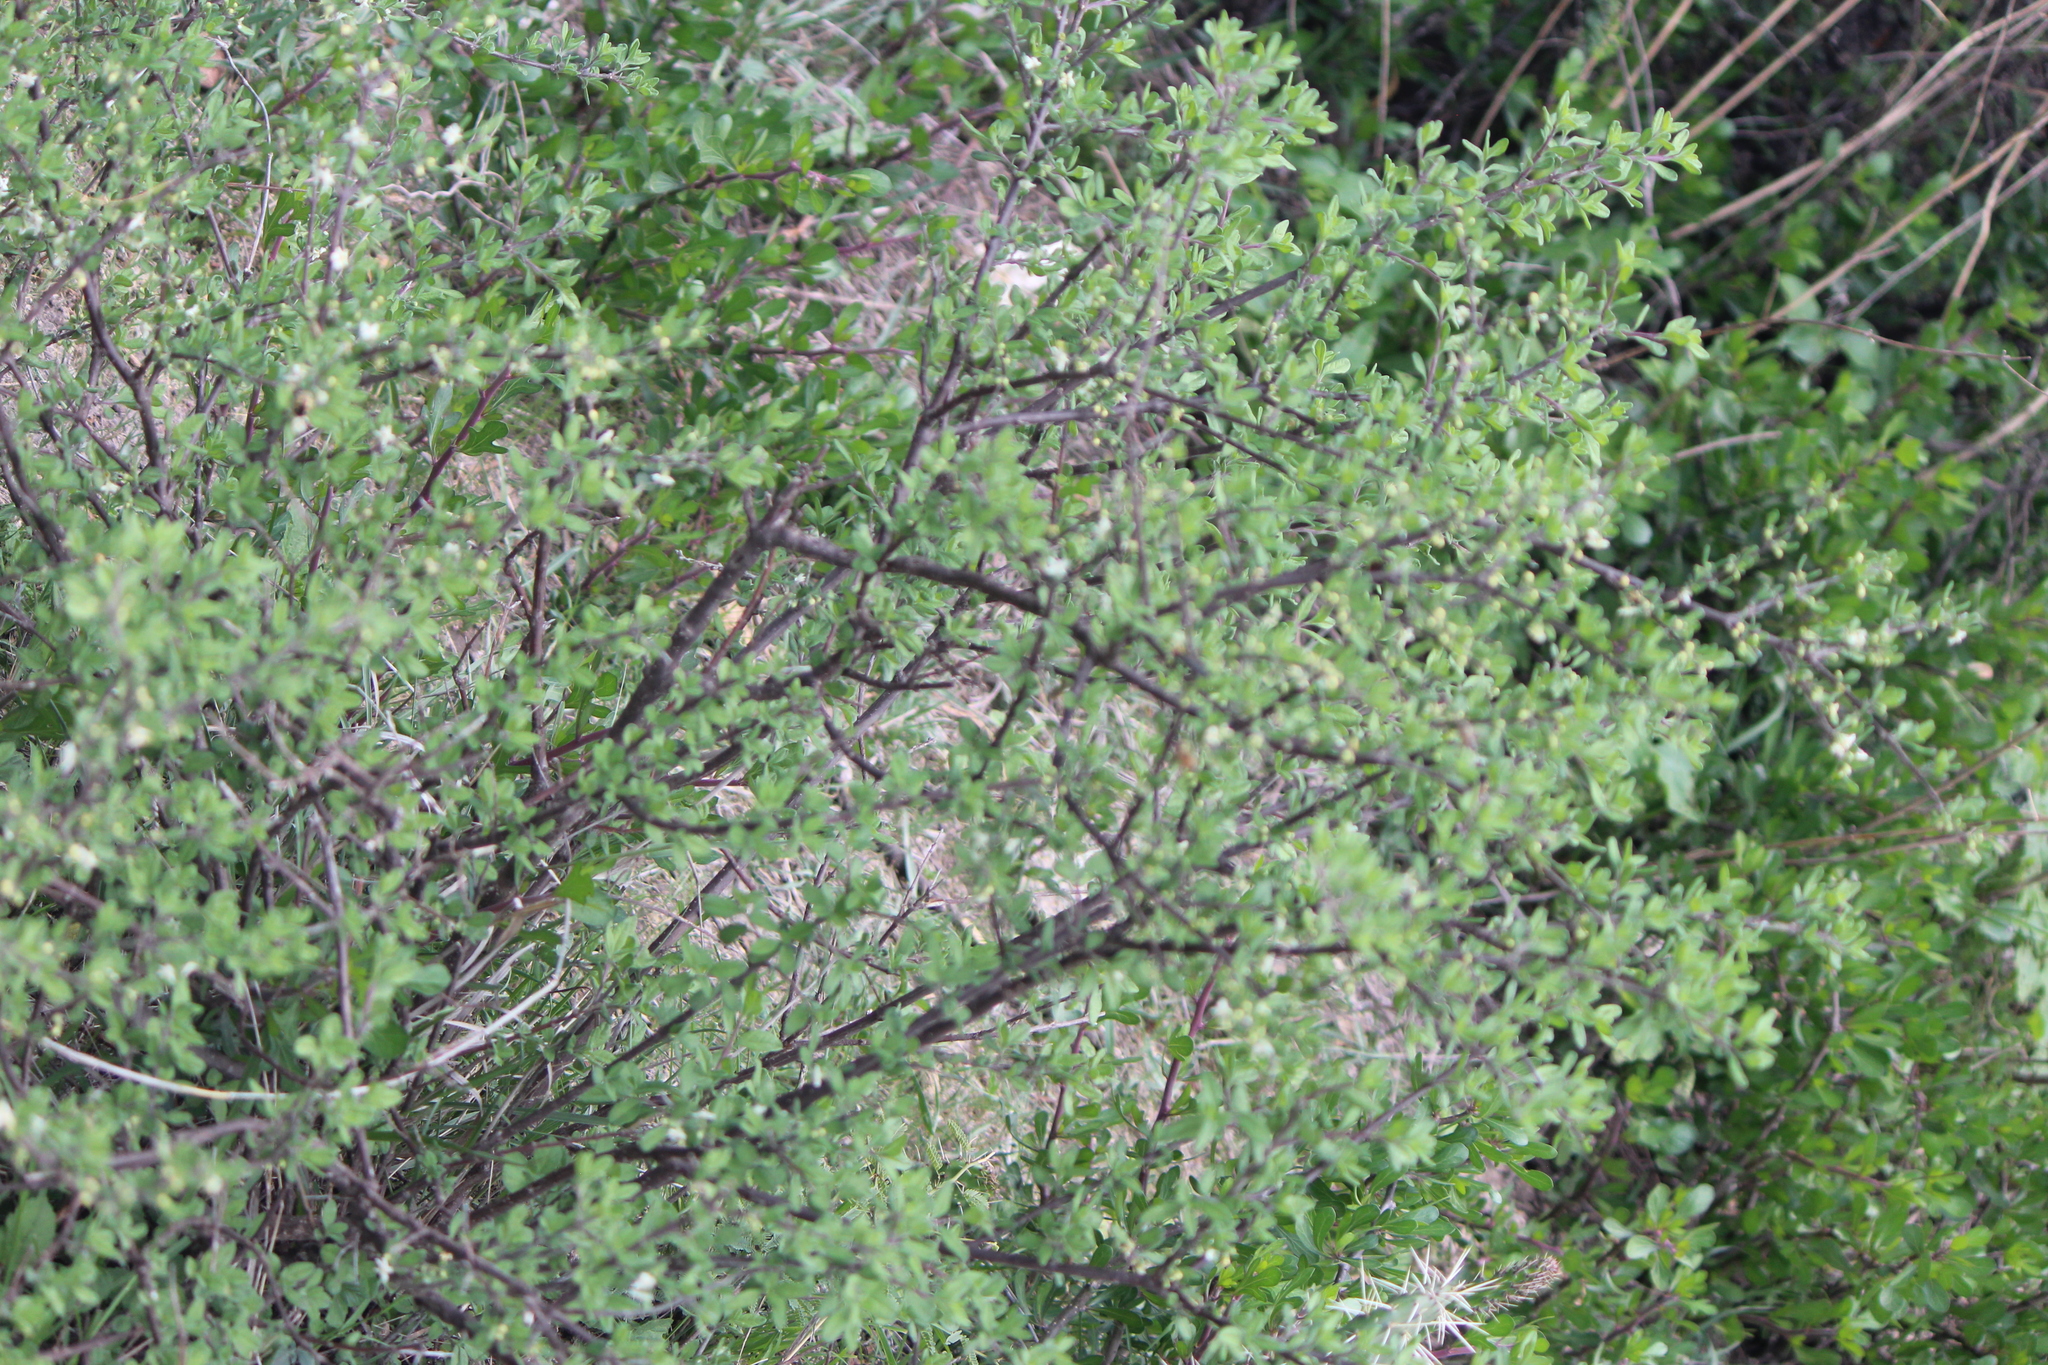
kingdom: Plantae
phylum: Tracheophyta
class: Magnoliopsida
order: Lamiales
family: Verbenaceae
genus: Citharexylum
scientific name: Citharexylum lycioides
